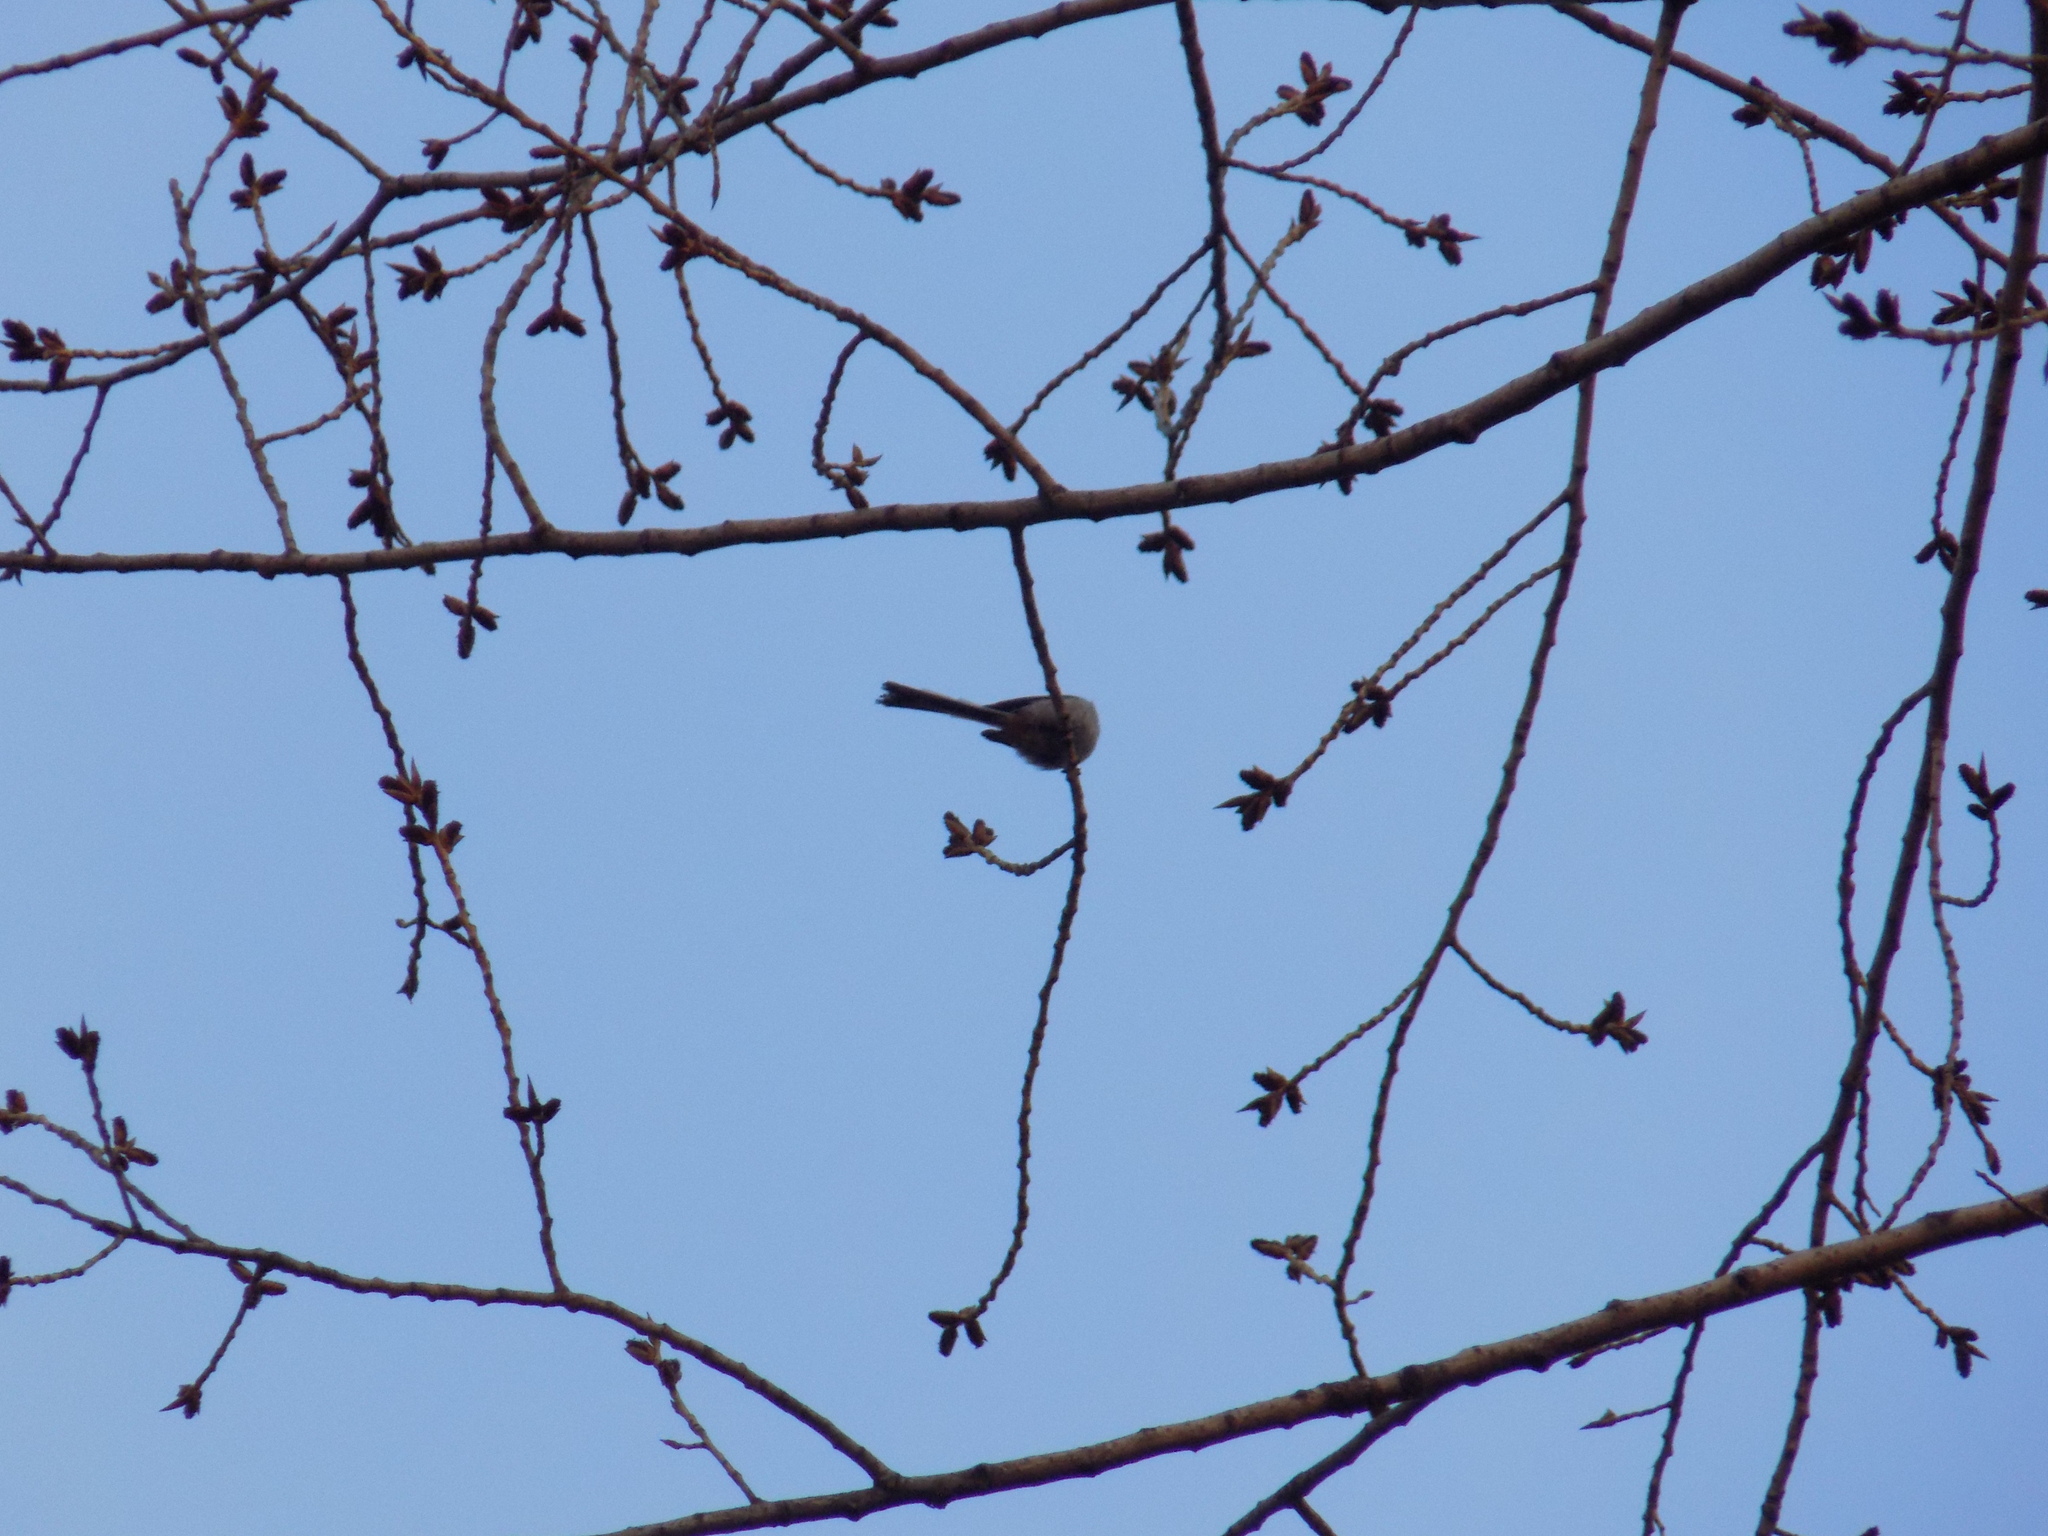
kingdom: Animalia
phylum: Chordata
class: Aves
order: Passeriformes
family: Aegithalidae
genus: Aegithalos
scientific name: Aegithalos caudatus
